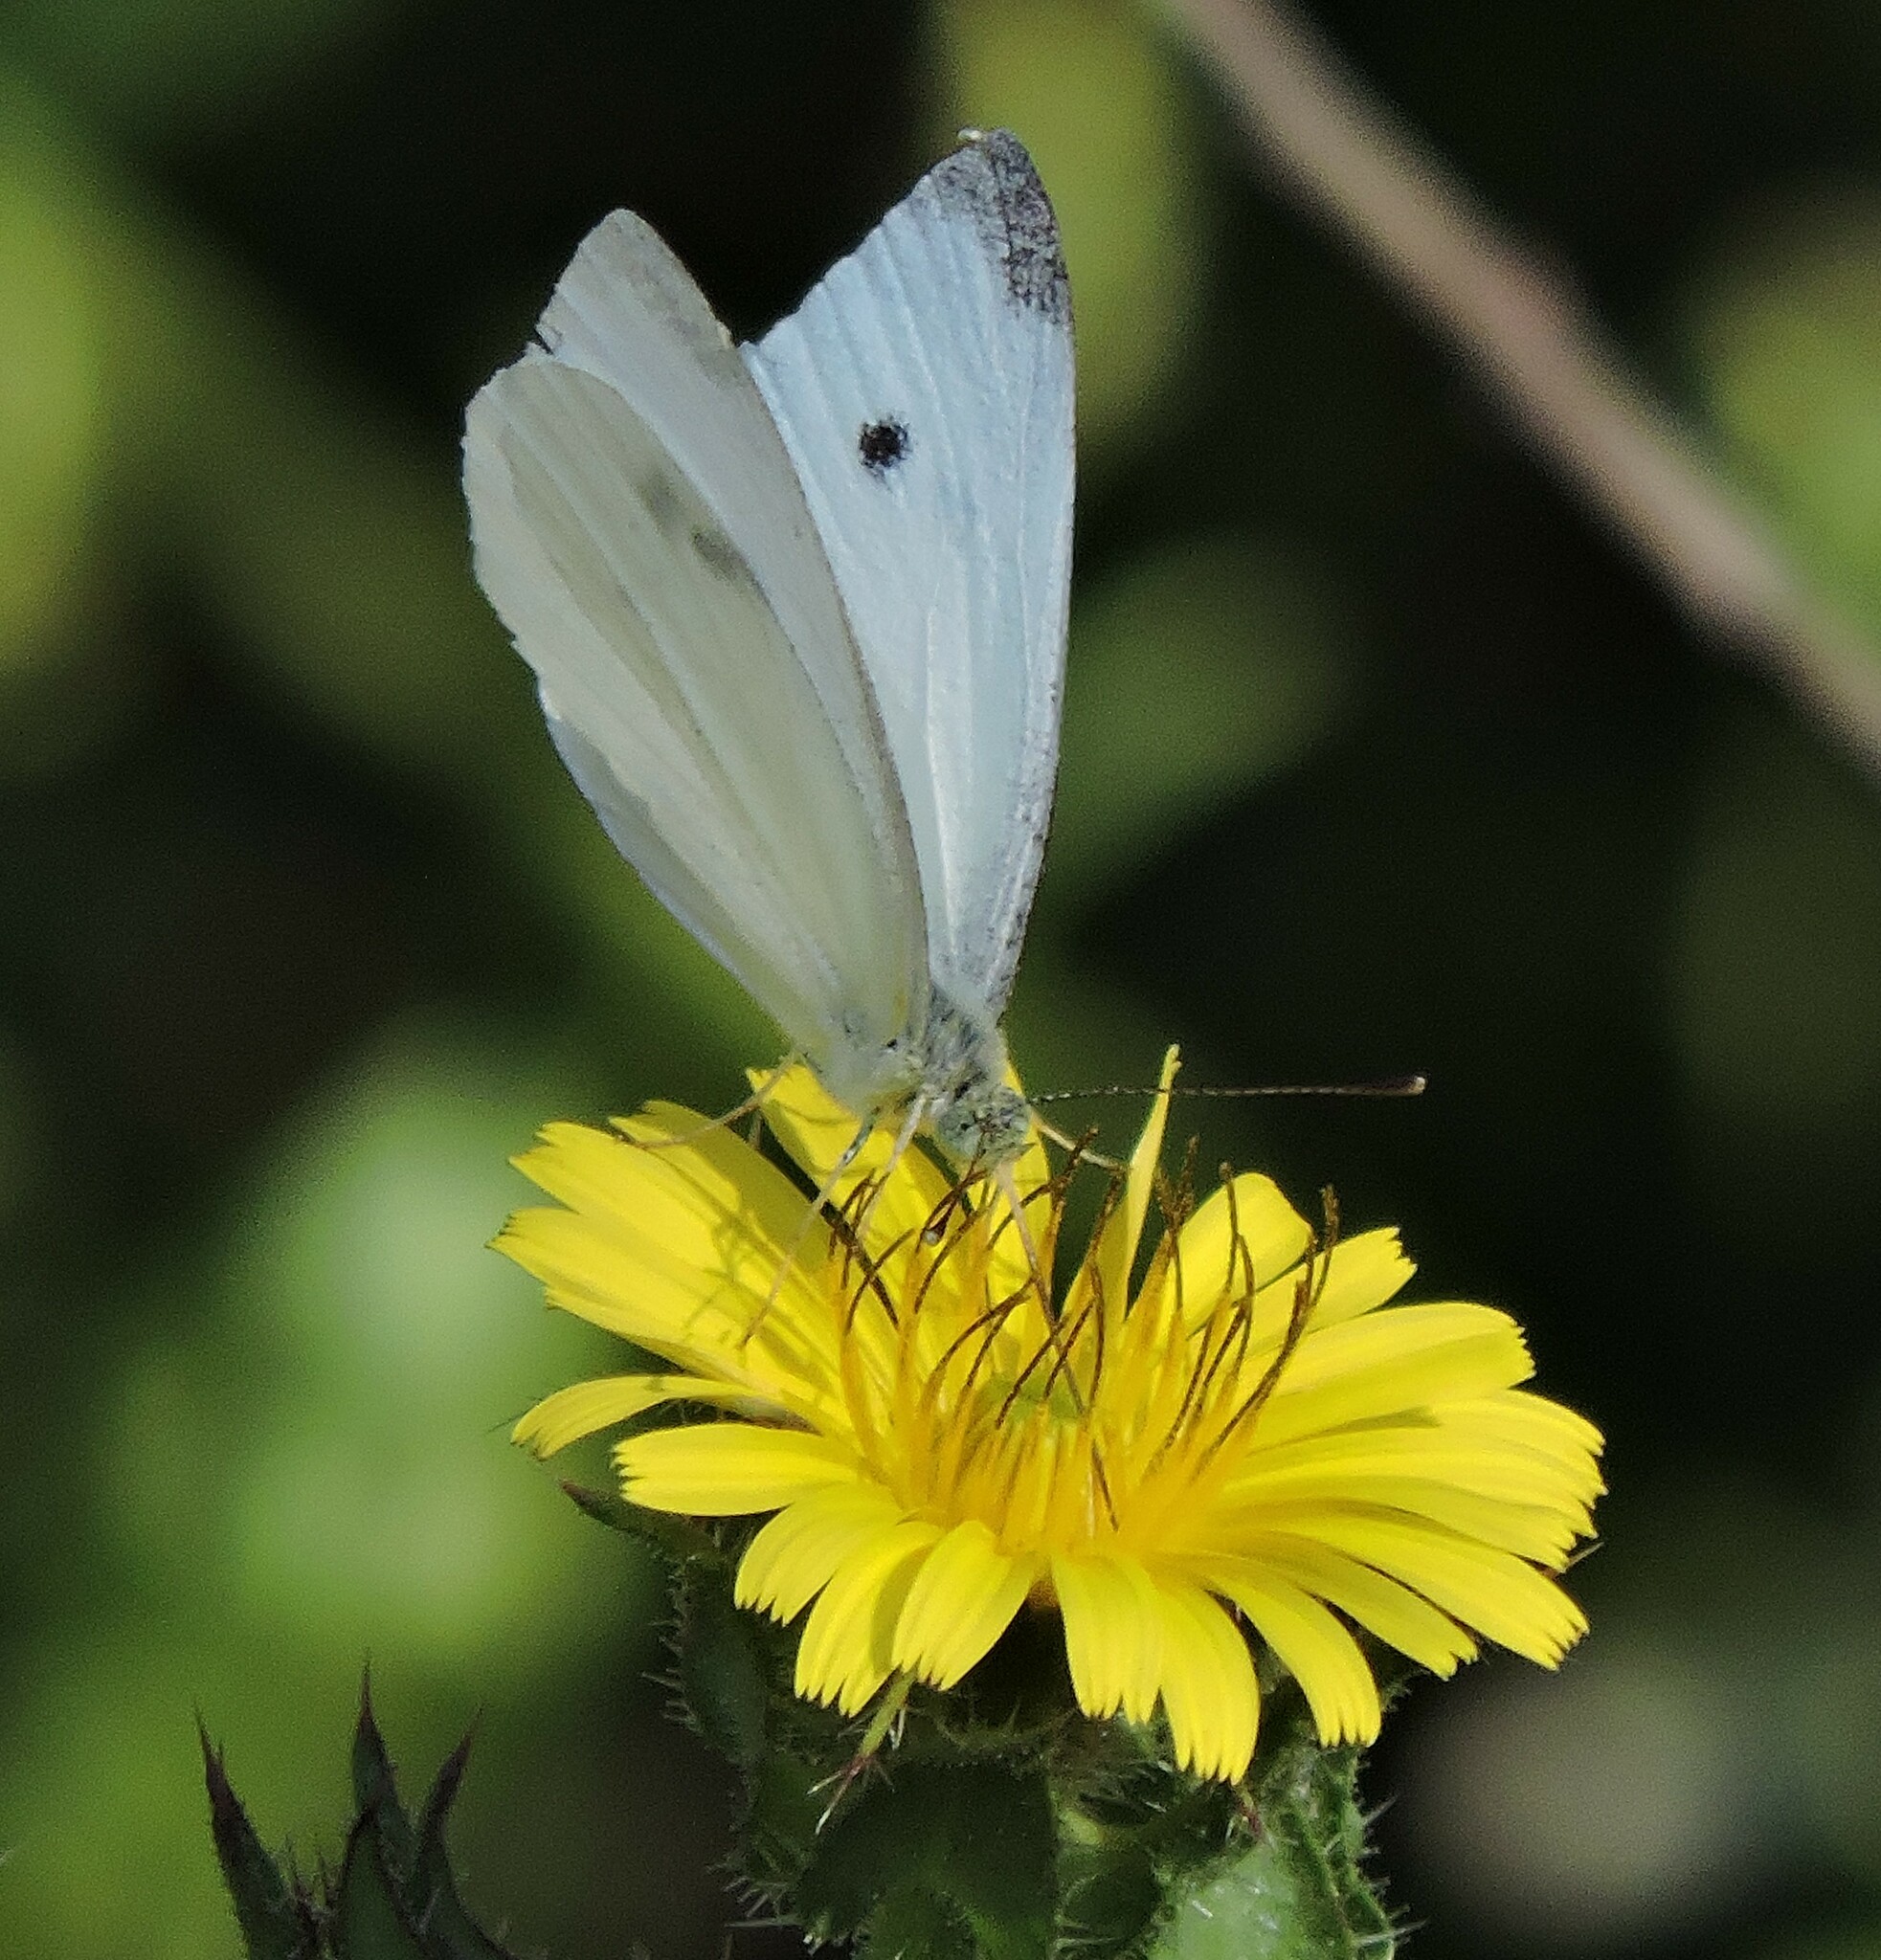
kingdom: Animalia
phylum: Arthropoda
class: Insecta
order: Lepidoptera
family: Pieridae
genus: Pieris
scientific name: Pieris rapae
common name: Small white
